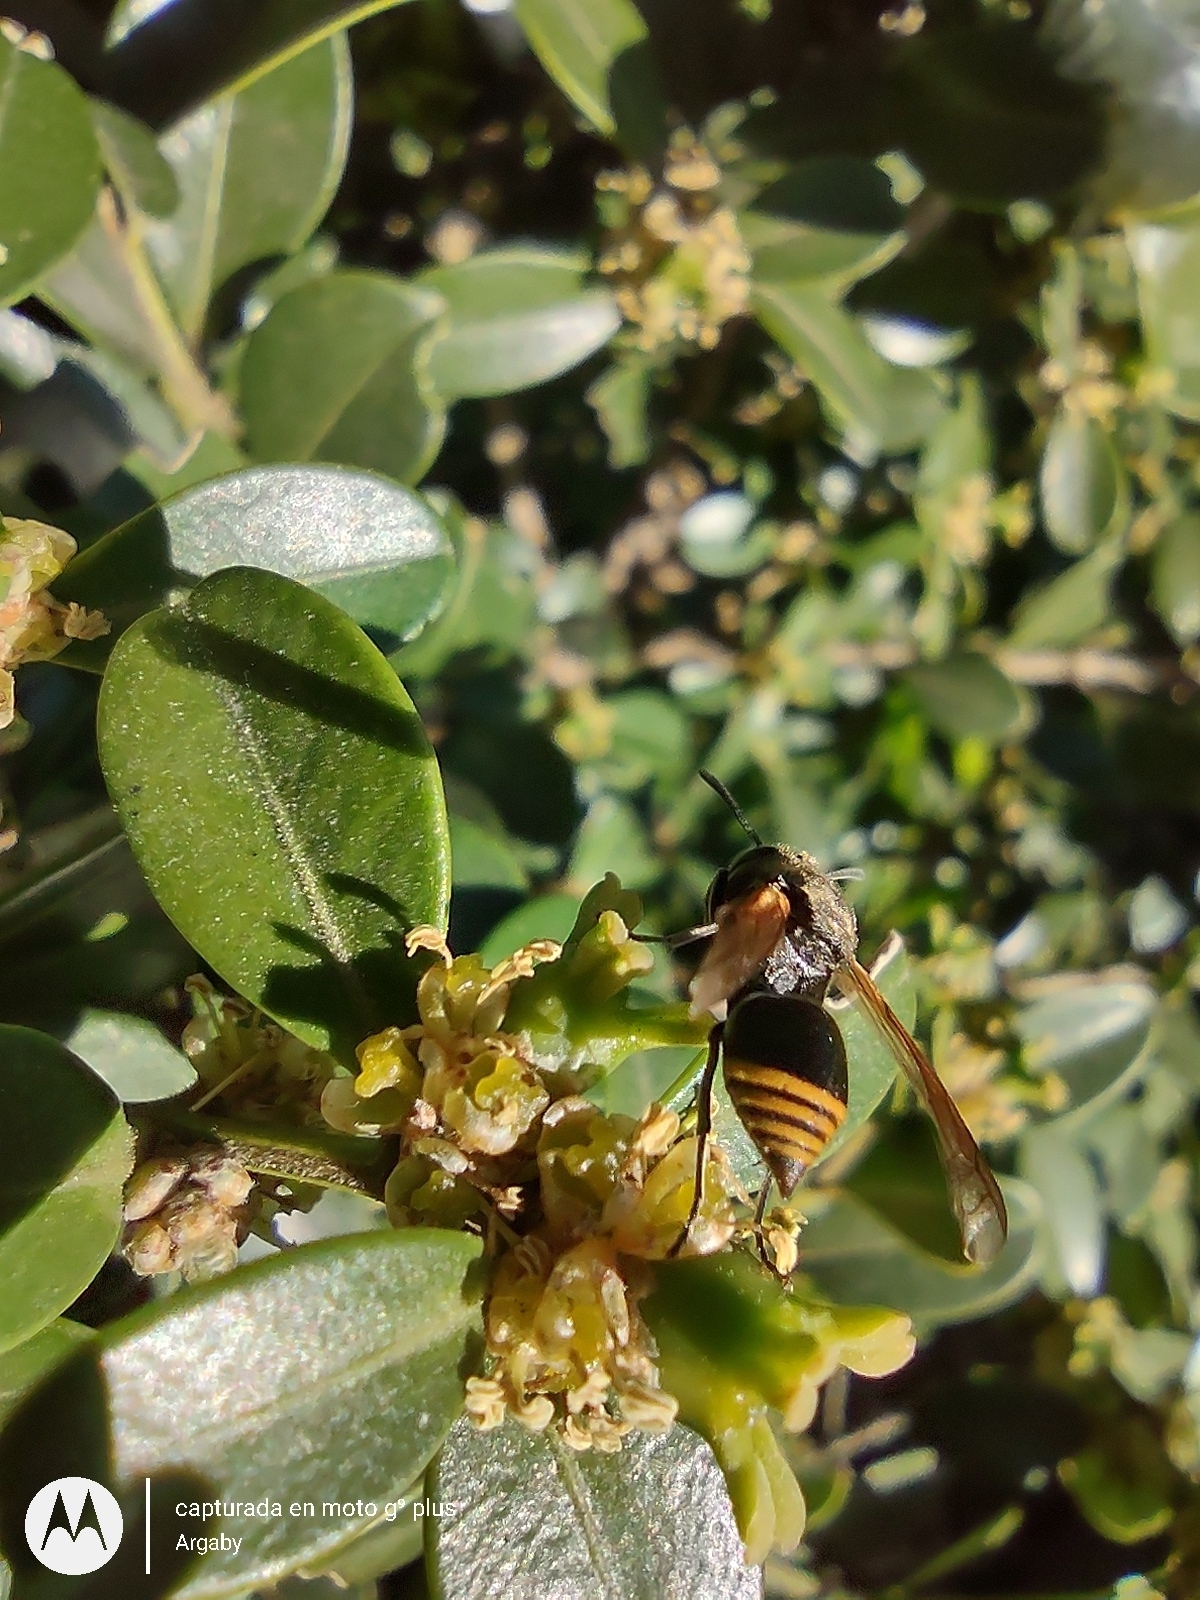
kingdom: Animalia
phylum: Arthropoda
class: Insecta
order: Hymenoptera
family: Vespidae
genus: Brachygastra
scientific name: Brachygastra lecheguana
